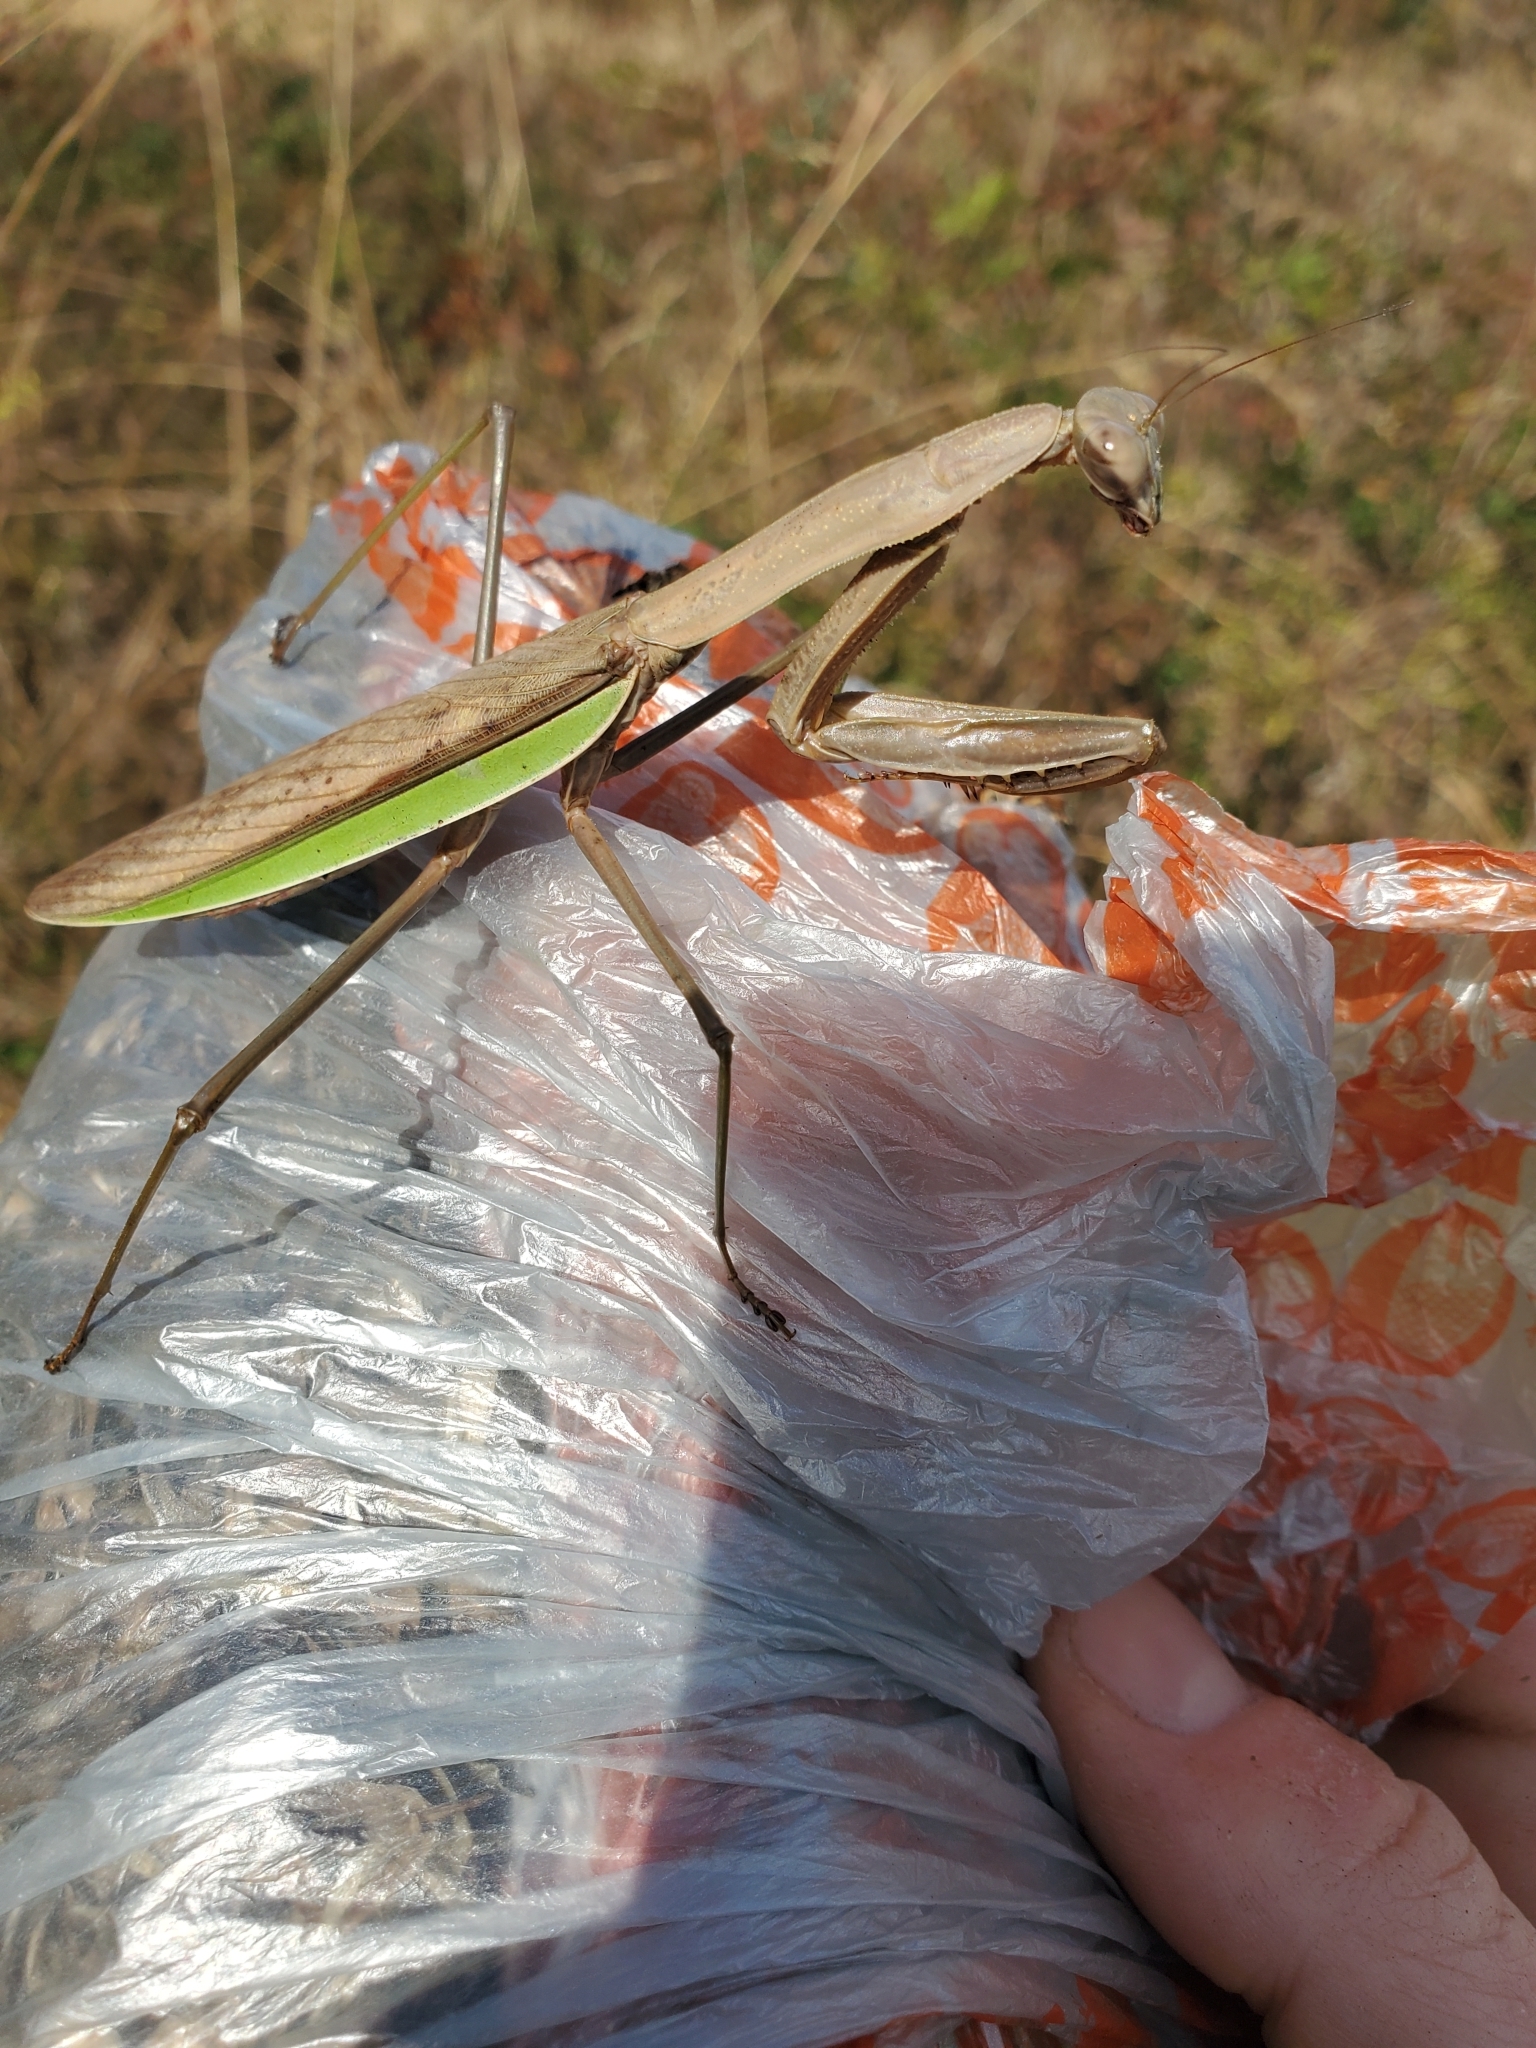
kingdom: Animalia
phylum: Arthropoda
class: Insecta
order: Mantodea
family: Mantidae
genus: Tenodera
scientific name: Tenodera sinensis
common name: Chinese mantis
